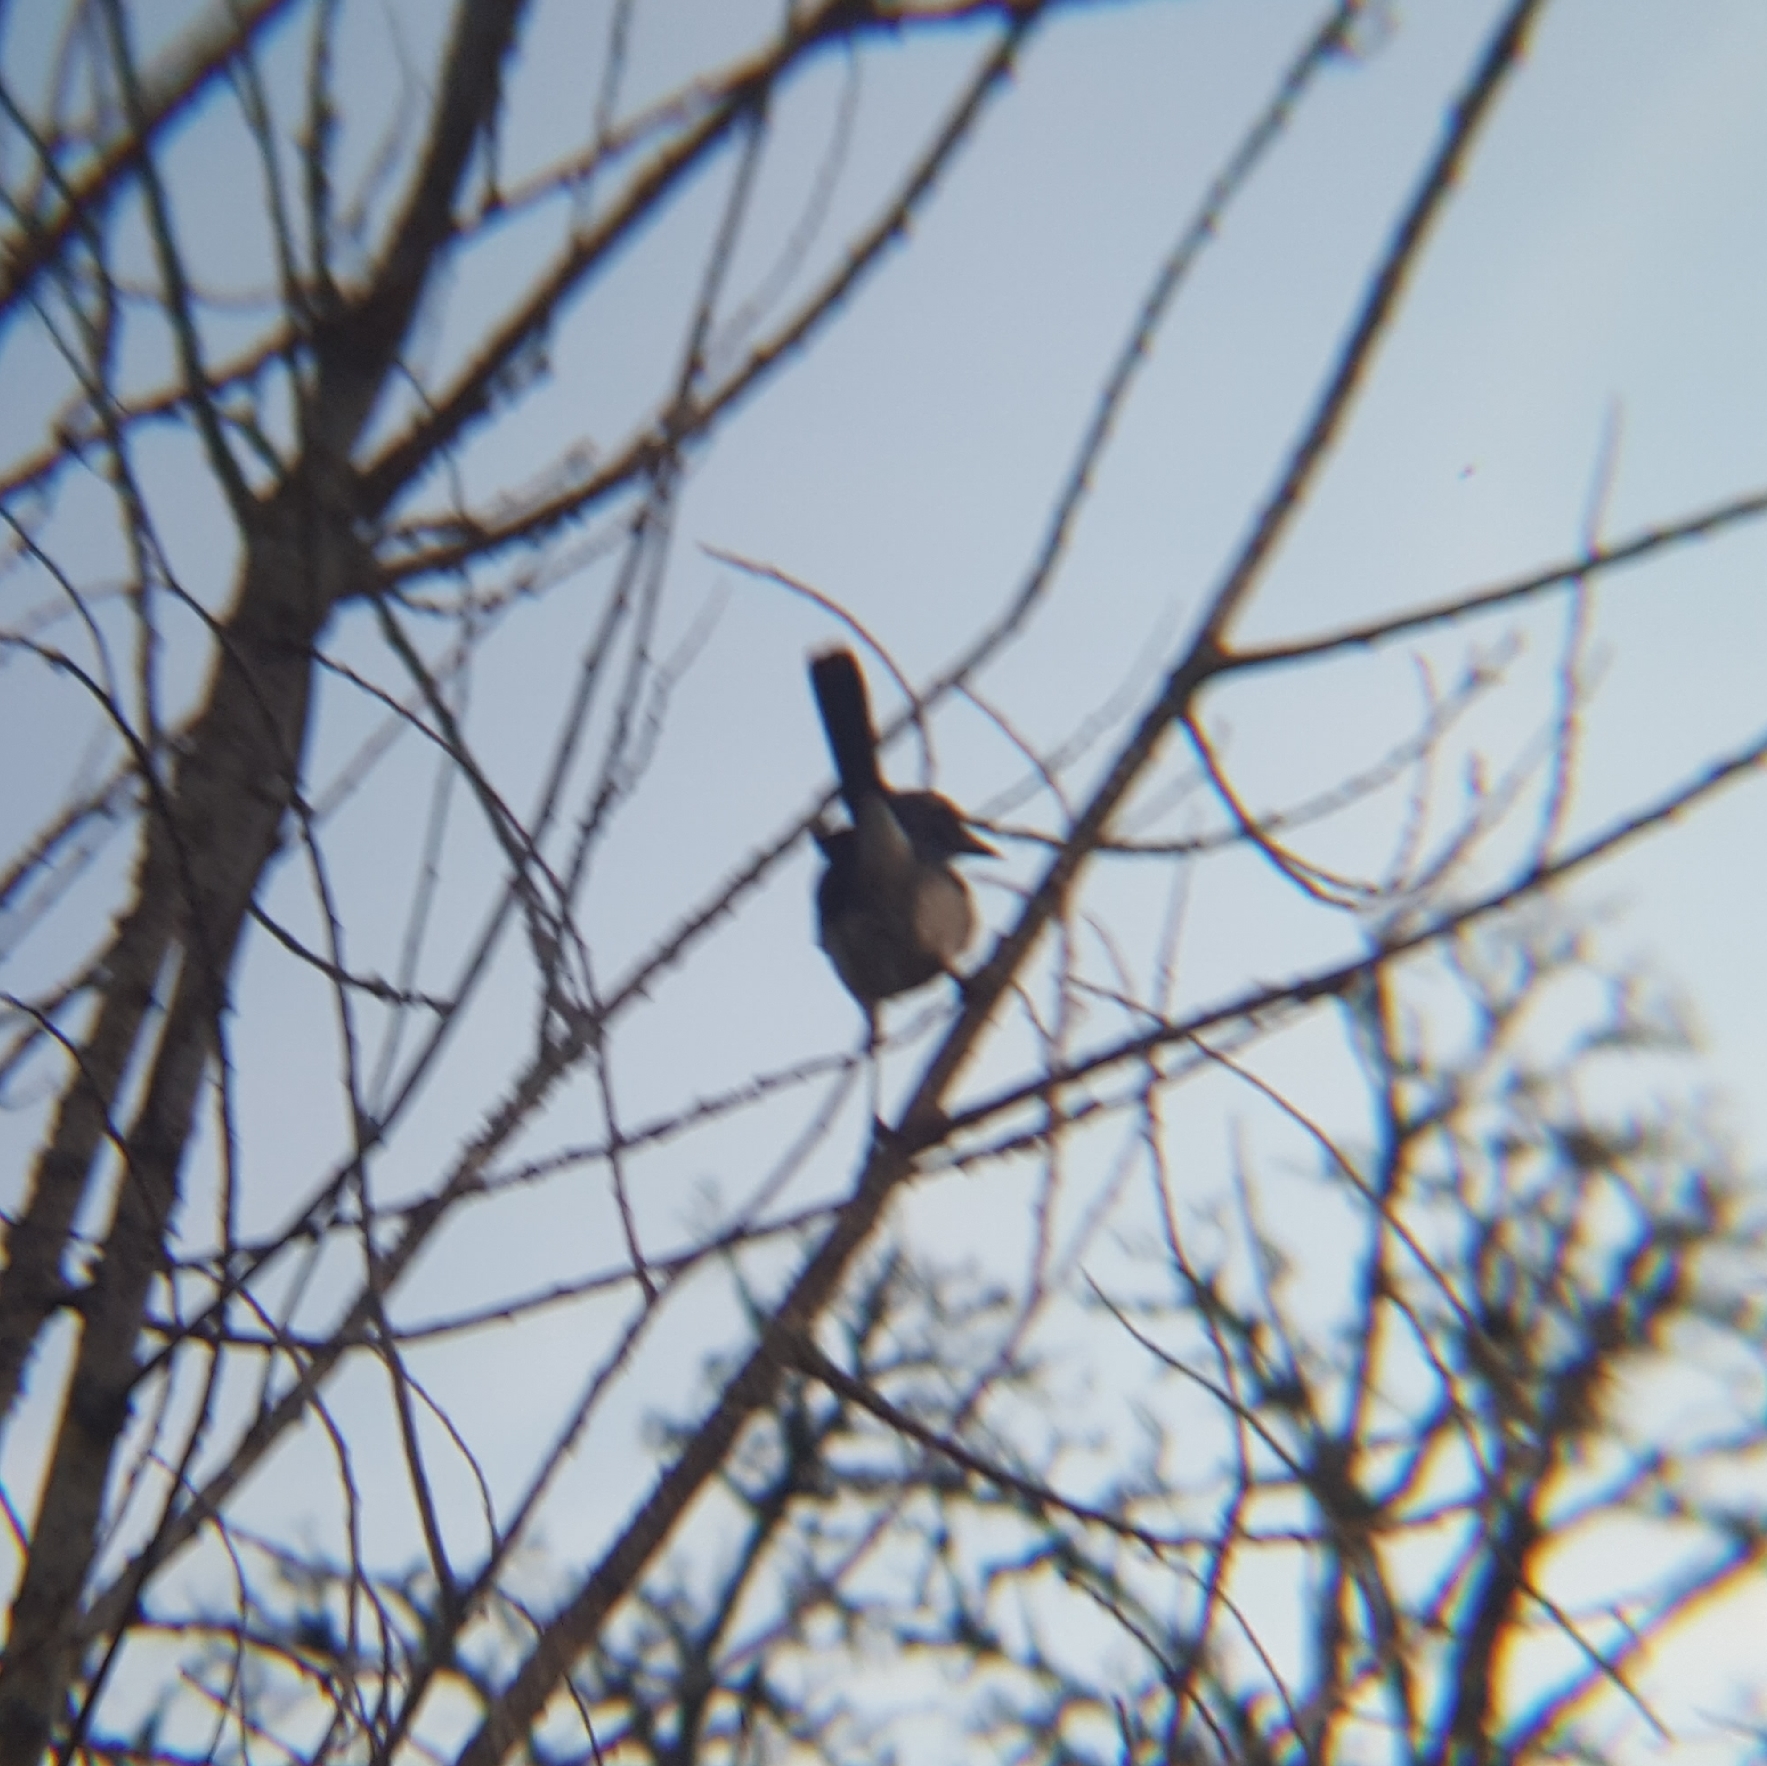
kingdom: Animalia
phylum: Chordata
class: Aves
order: Passeriformes
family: Corvidae
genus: Aphelocoma
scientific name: Aphelocoma californica
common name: California scrub-jay
